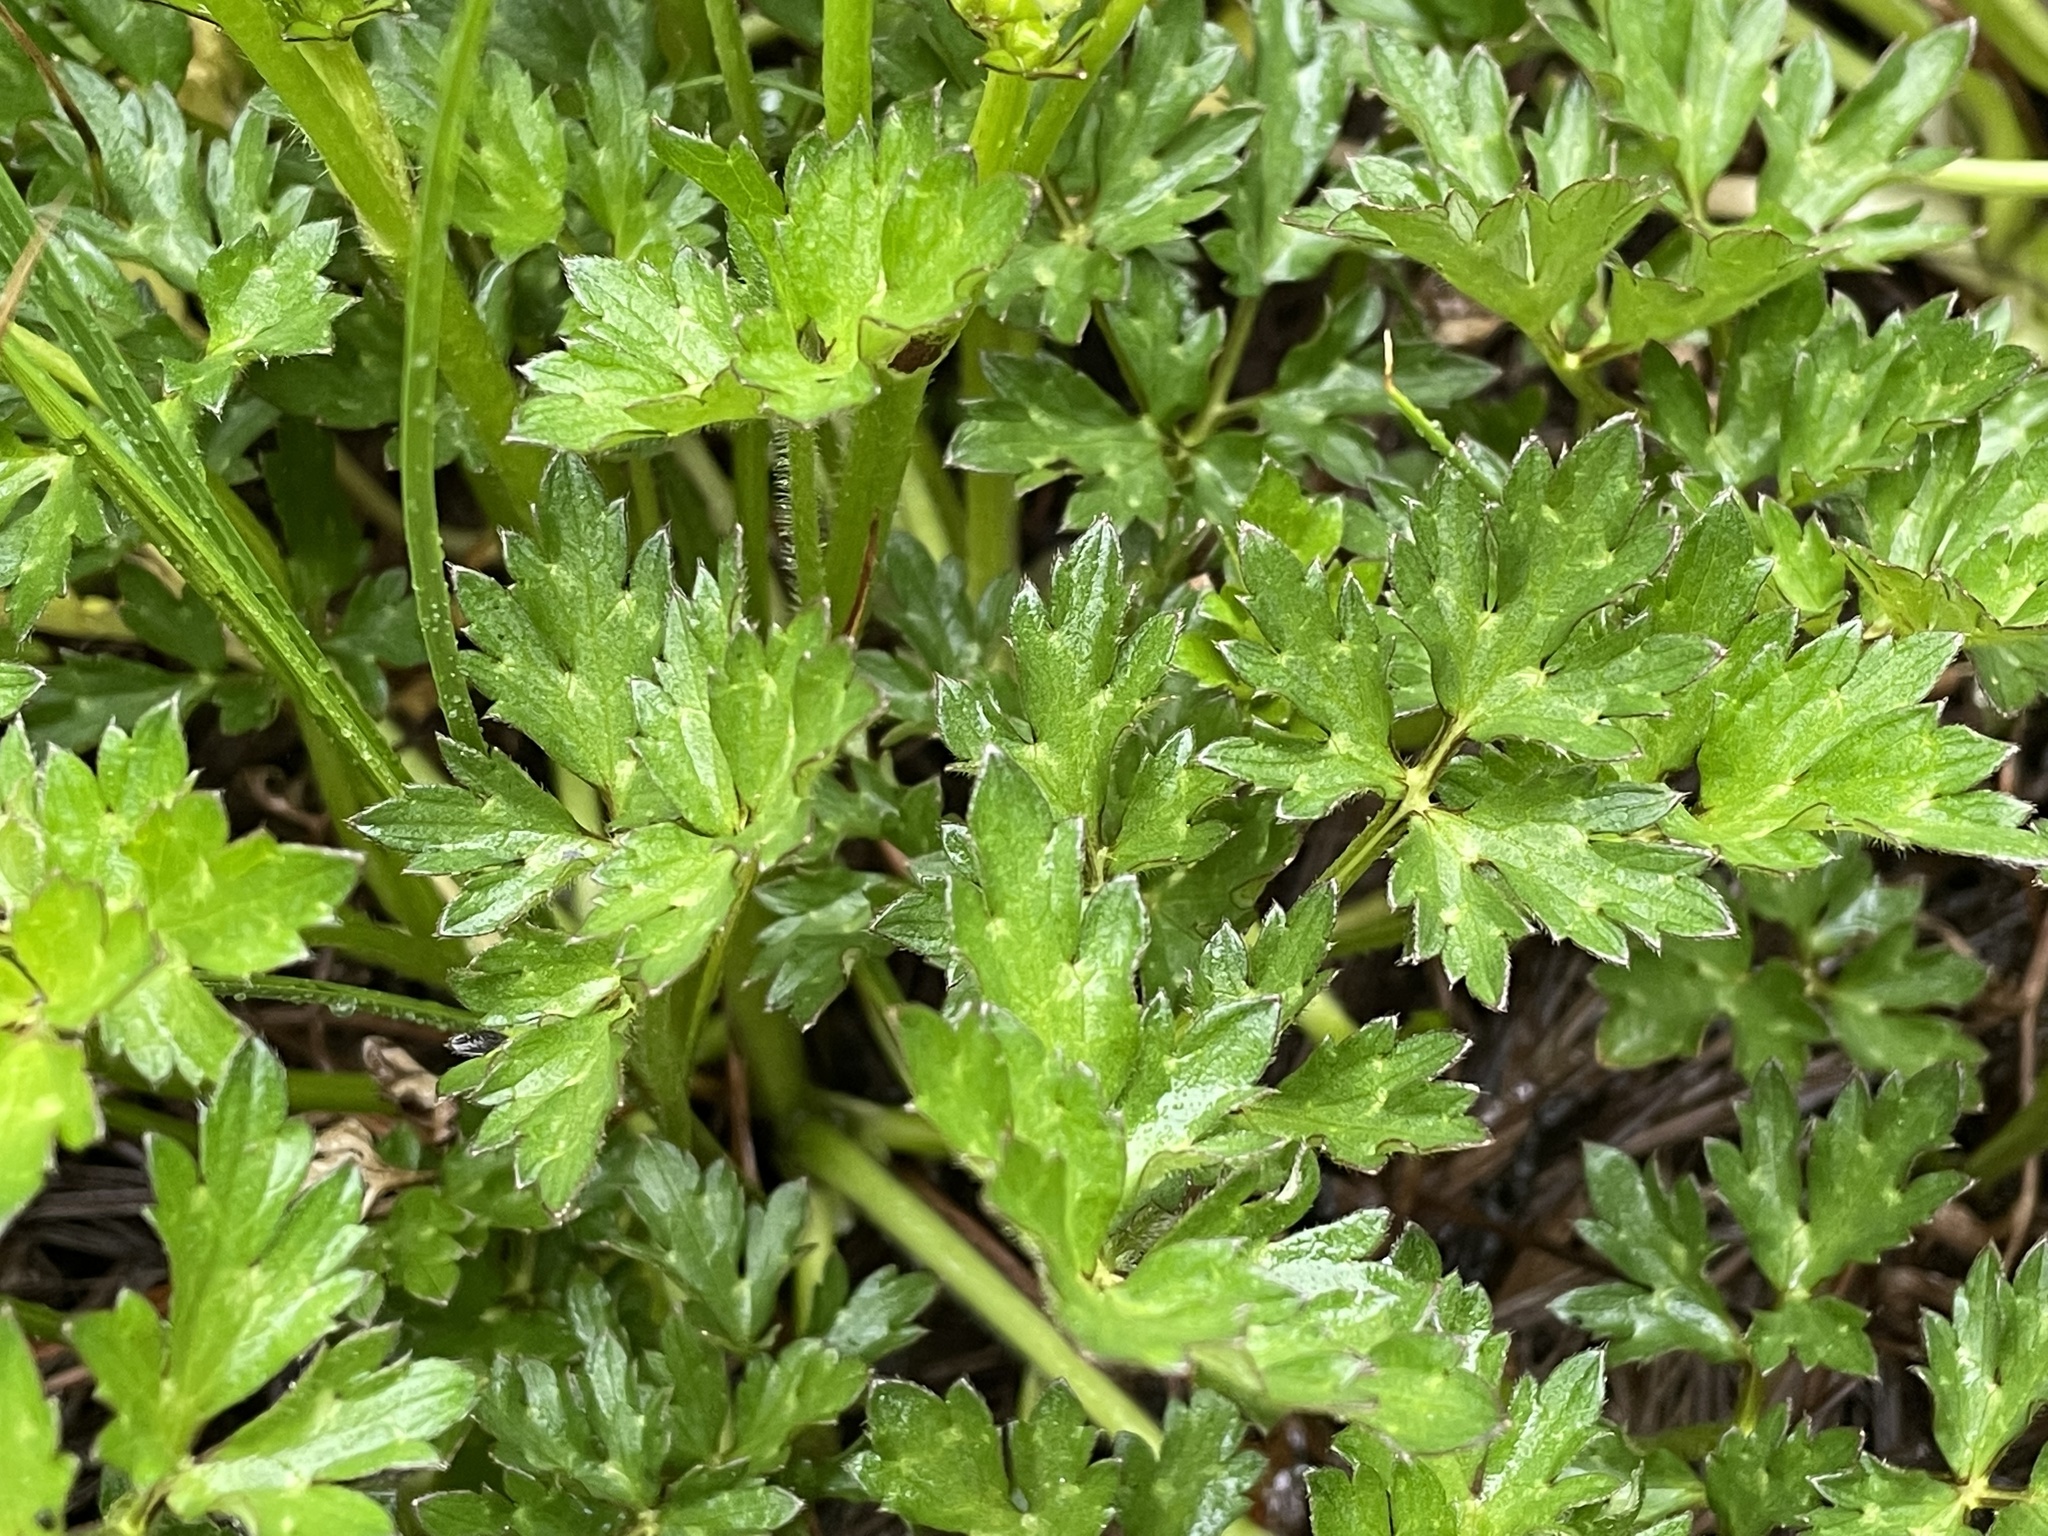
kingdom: Plantae
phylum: Tracheophyta
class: Magnoliopsida
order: Ranunculales
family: Ranunculaceae
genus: Ranunculus
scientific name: Ranunculus repens
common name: Creeping buttercup
